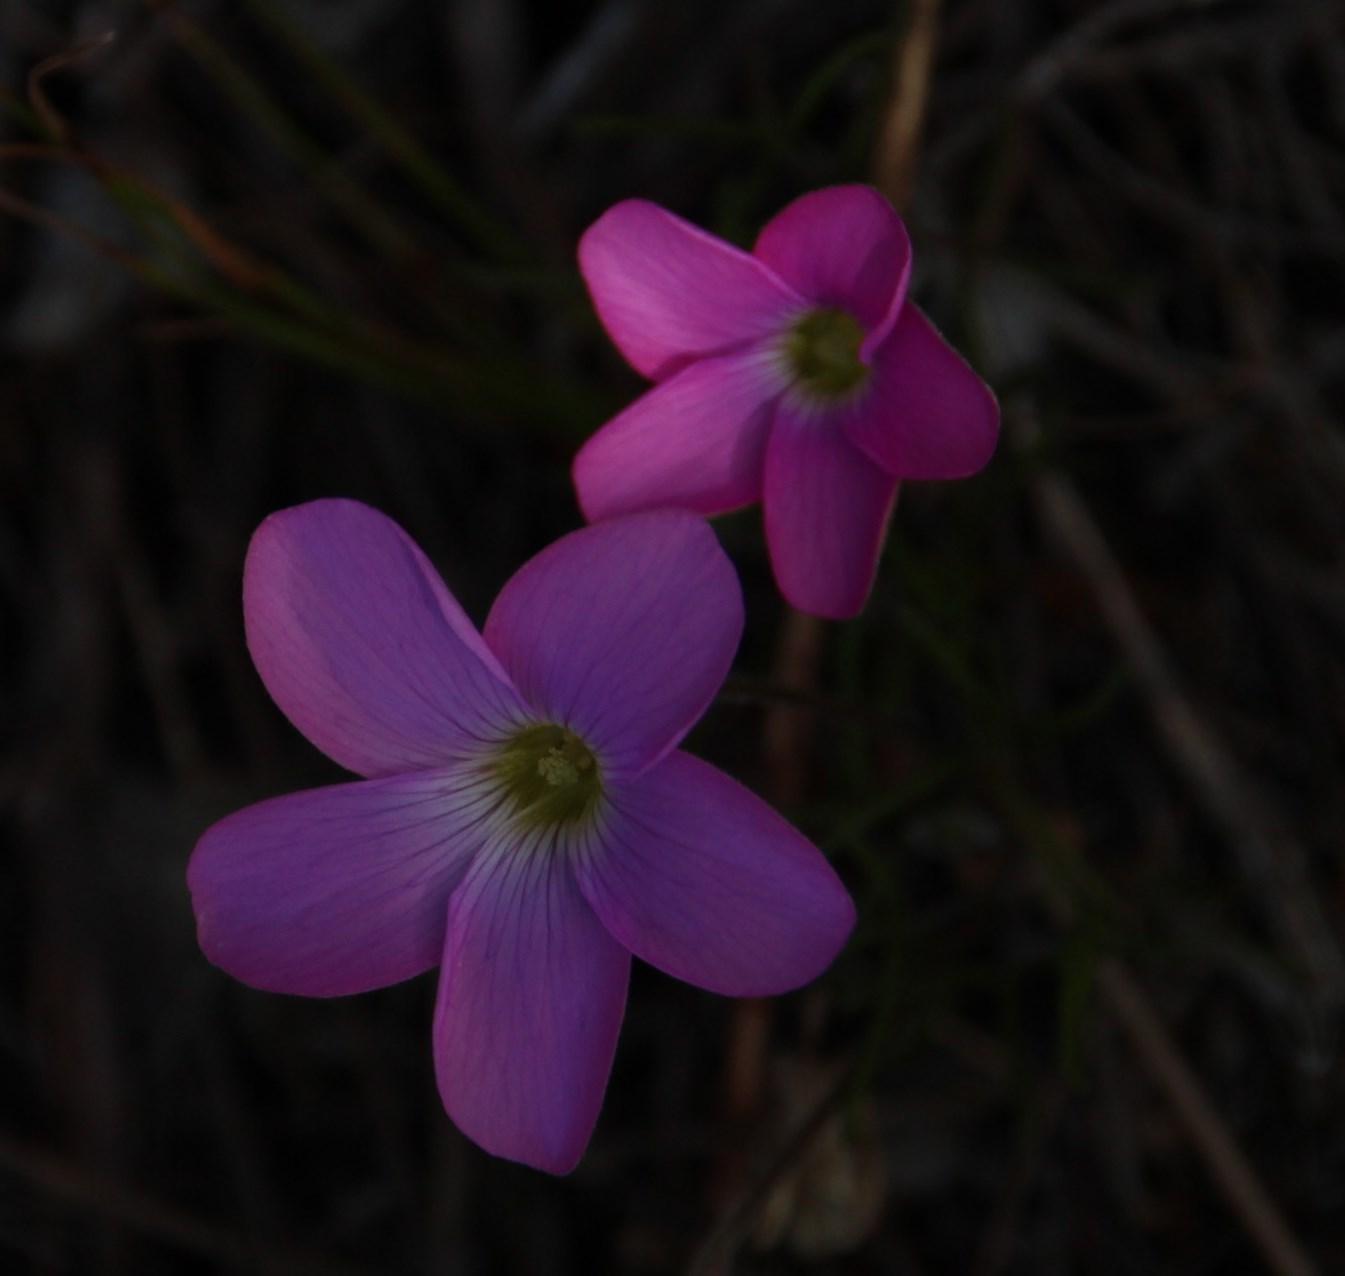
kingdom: Plantae
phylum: Tracheophyta
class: Magnoliopsida
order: Oxalidales
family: Oxalidaceae
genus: Oxalis
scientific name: Oxalis polyphylla
